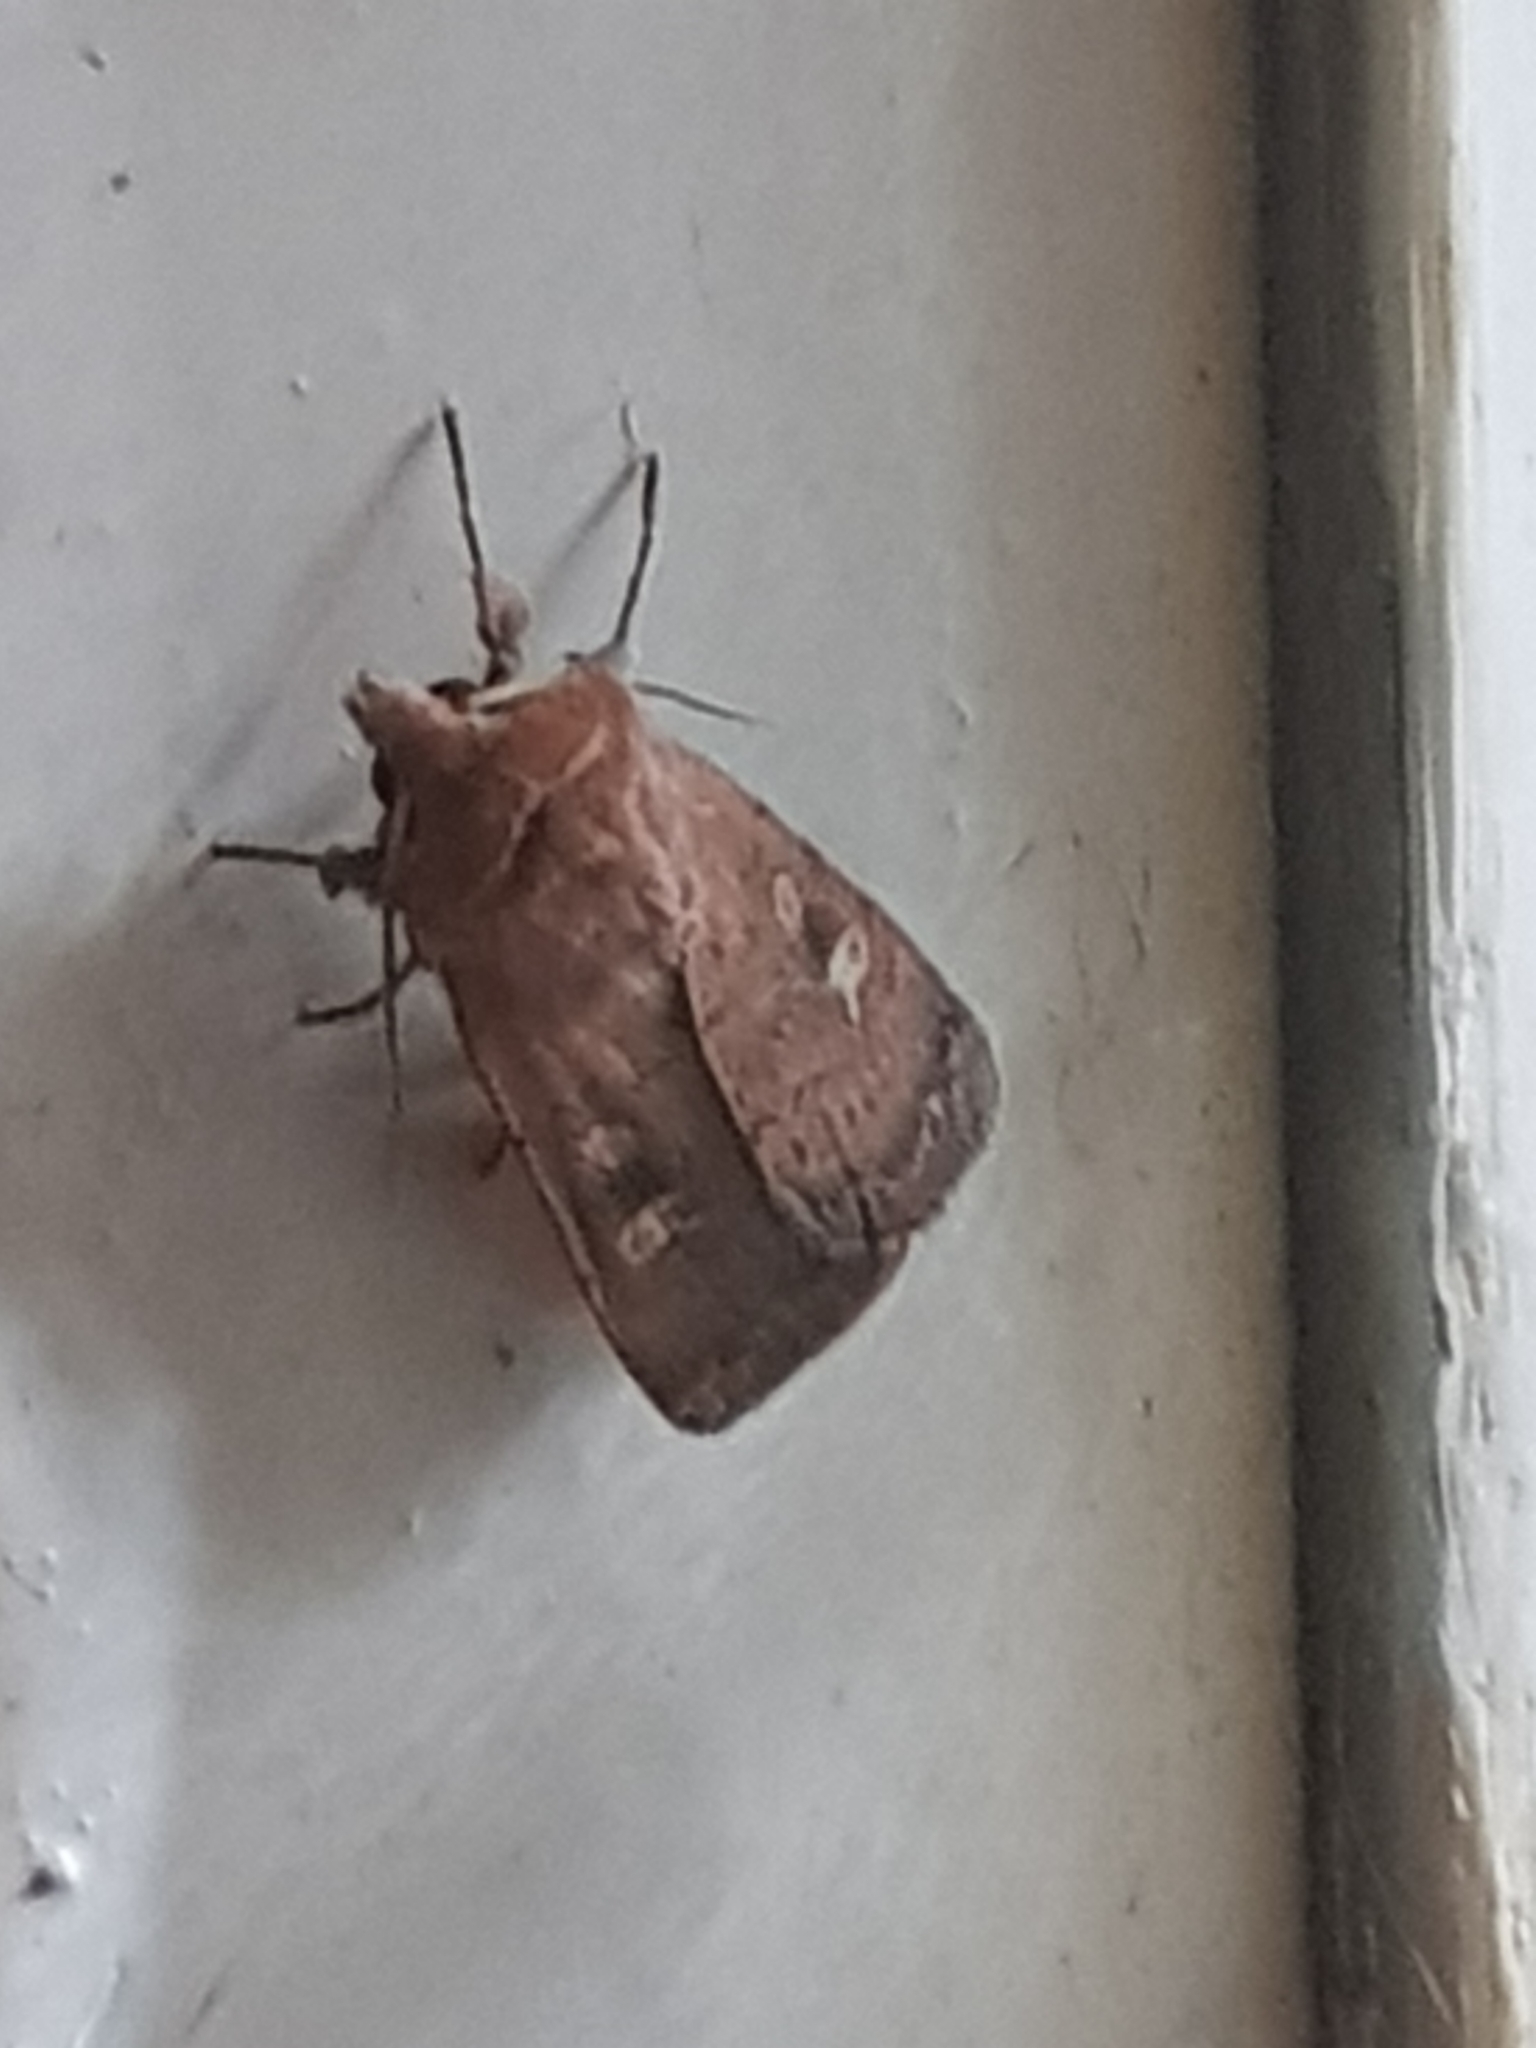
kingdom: Animalia
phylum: Arthropoda
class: Insecta
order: Lepidoptera
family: Noctuidae
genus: Xestia
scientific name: Xestia xanthographa
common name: Square-spot rustic
